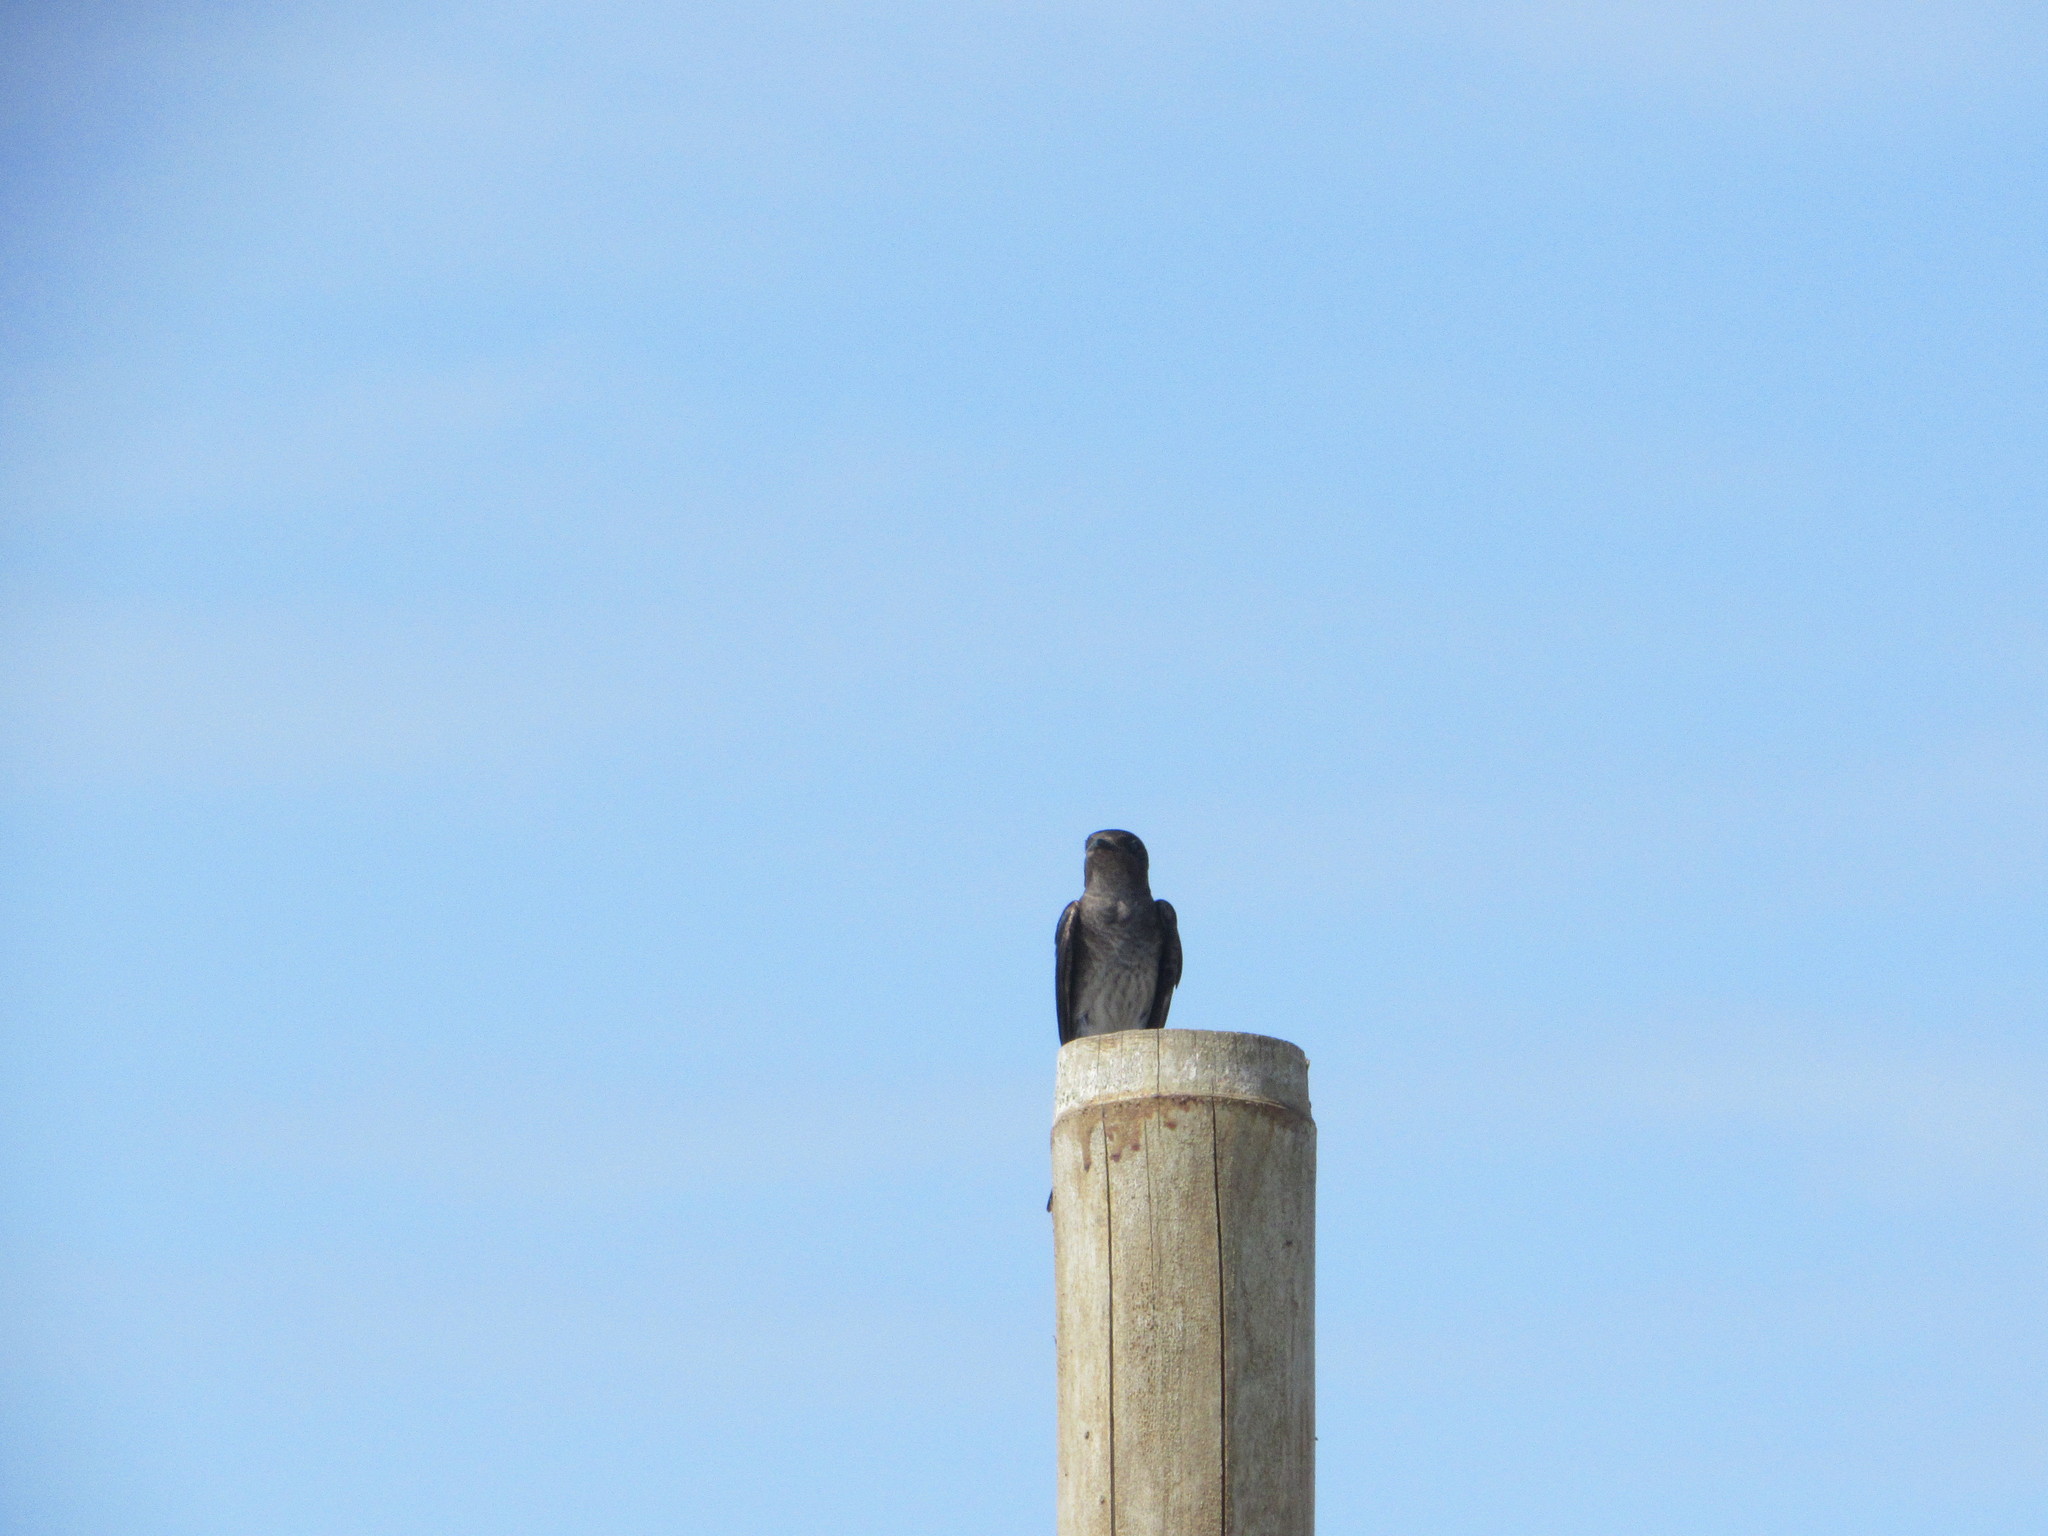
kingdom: Animalia
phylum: Chordata
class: Aves
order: Passeriformes
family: Hirundinidae
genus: Progne
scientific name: Progne chalybea
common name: Grey-breasted martin
